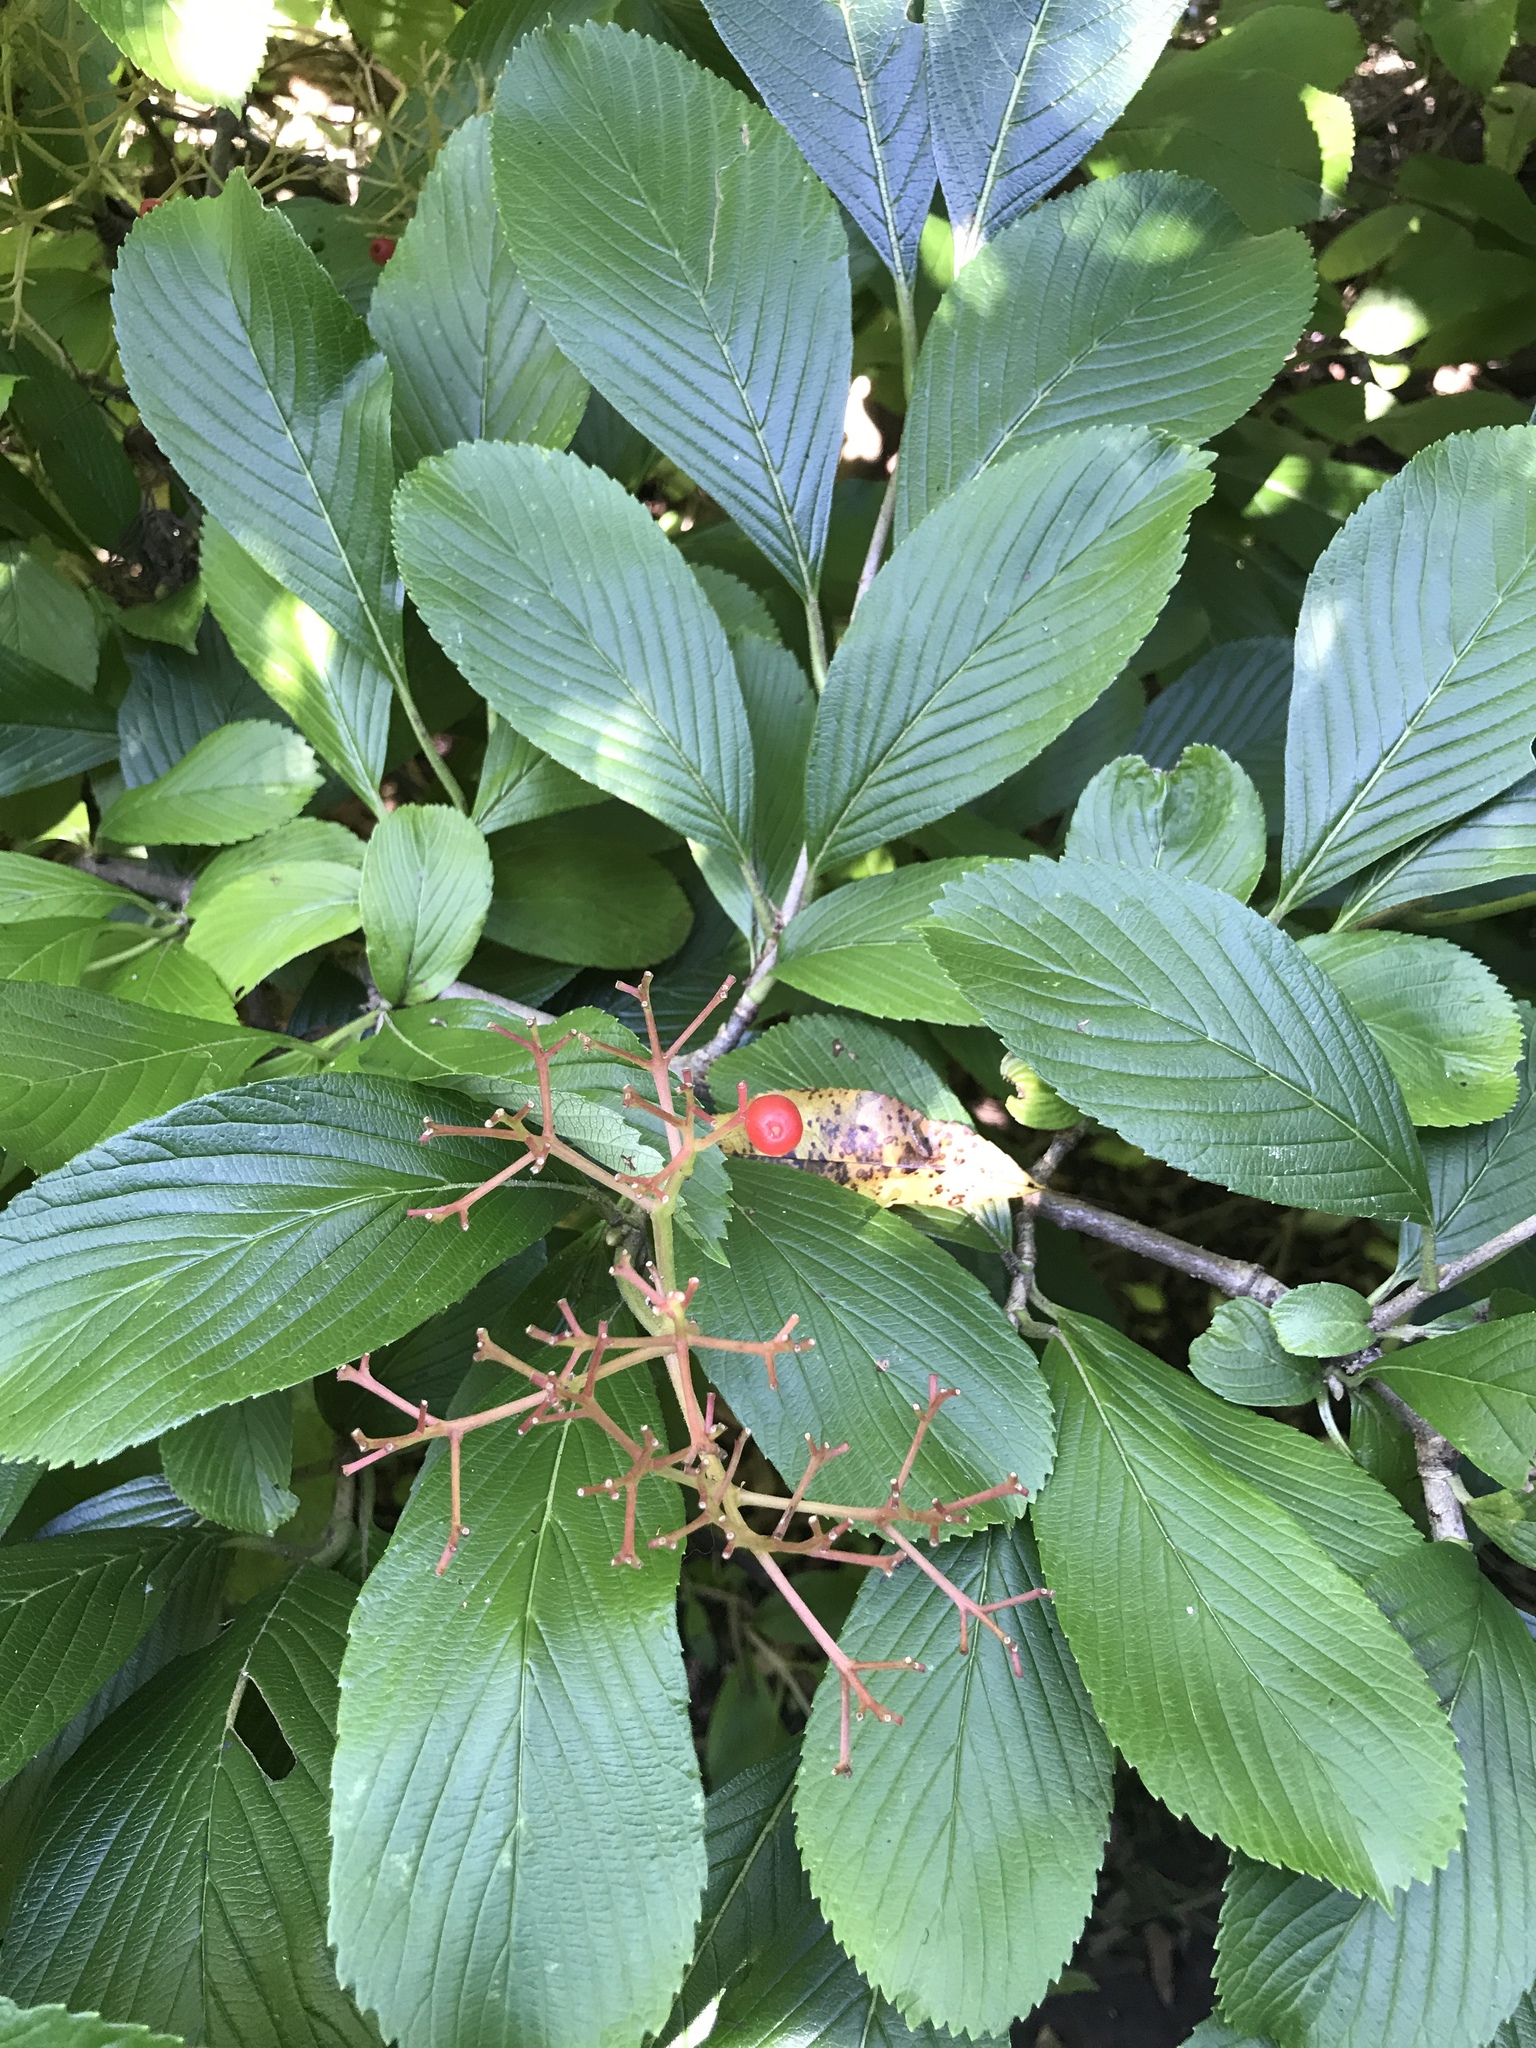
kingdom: Plantae
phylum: Tracheophyta
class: Magnoliopsida
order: Dipsacales
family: Viburnaceae
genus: Viburnum
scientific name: Viburnum sieboldii
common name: Siebold's arrowwood
